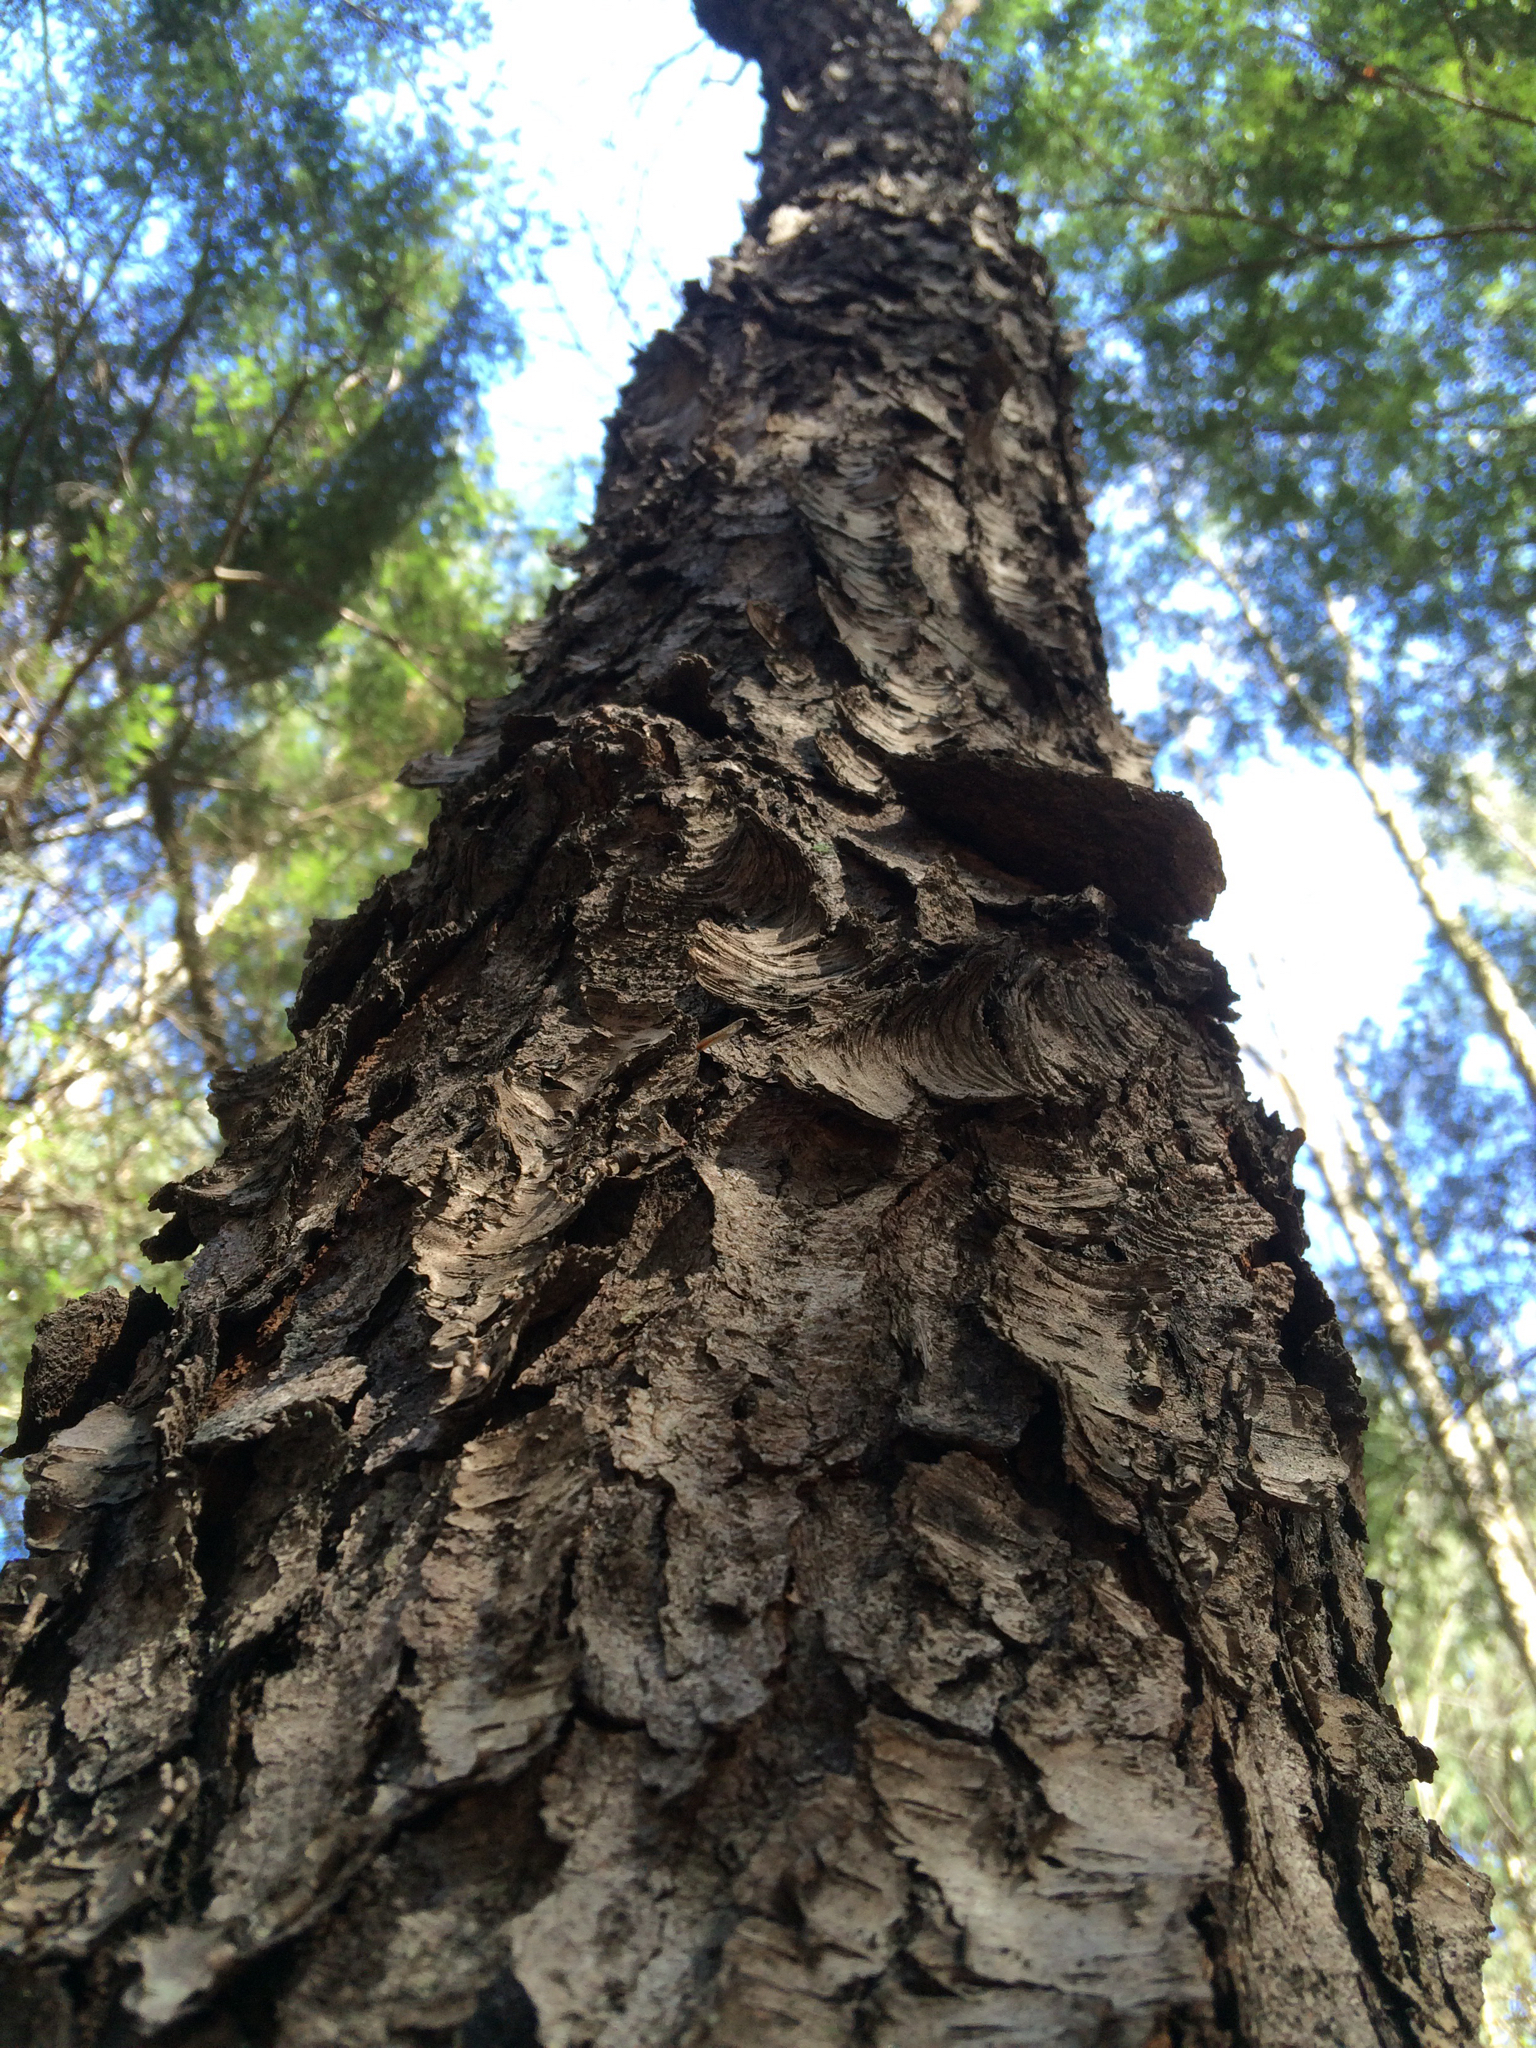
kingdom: Plantae
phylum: Tracheophyta
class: Magnoliopsida
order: Rosales
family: Rosaceae
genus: Prunus
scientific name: Prunus serotina
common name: Black cherry
